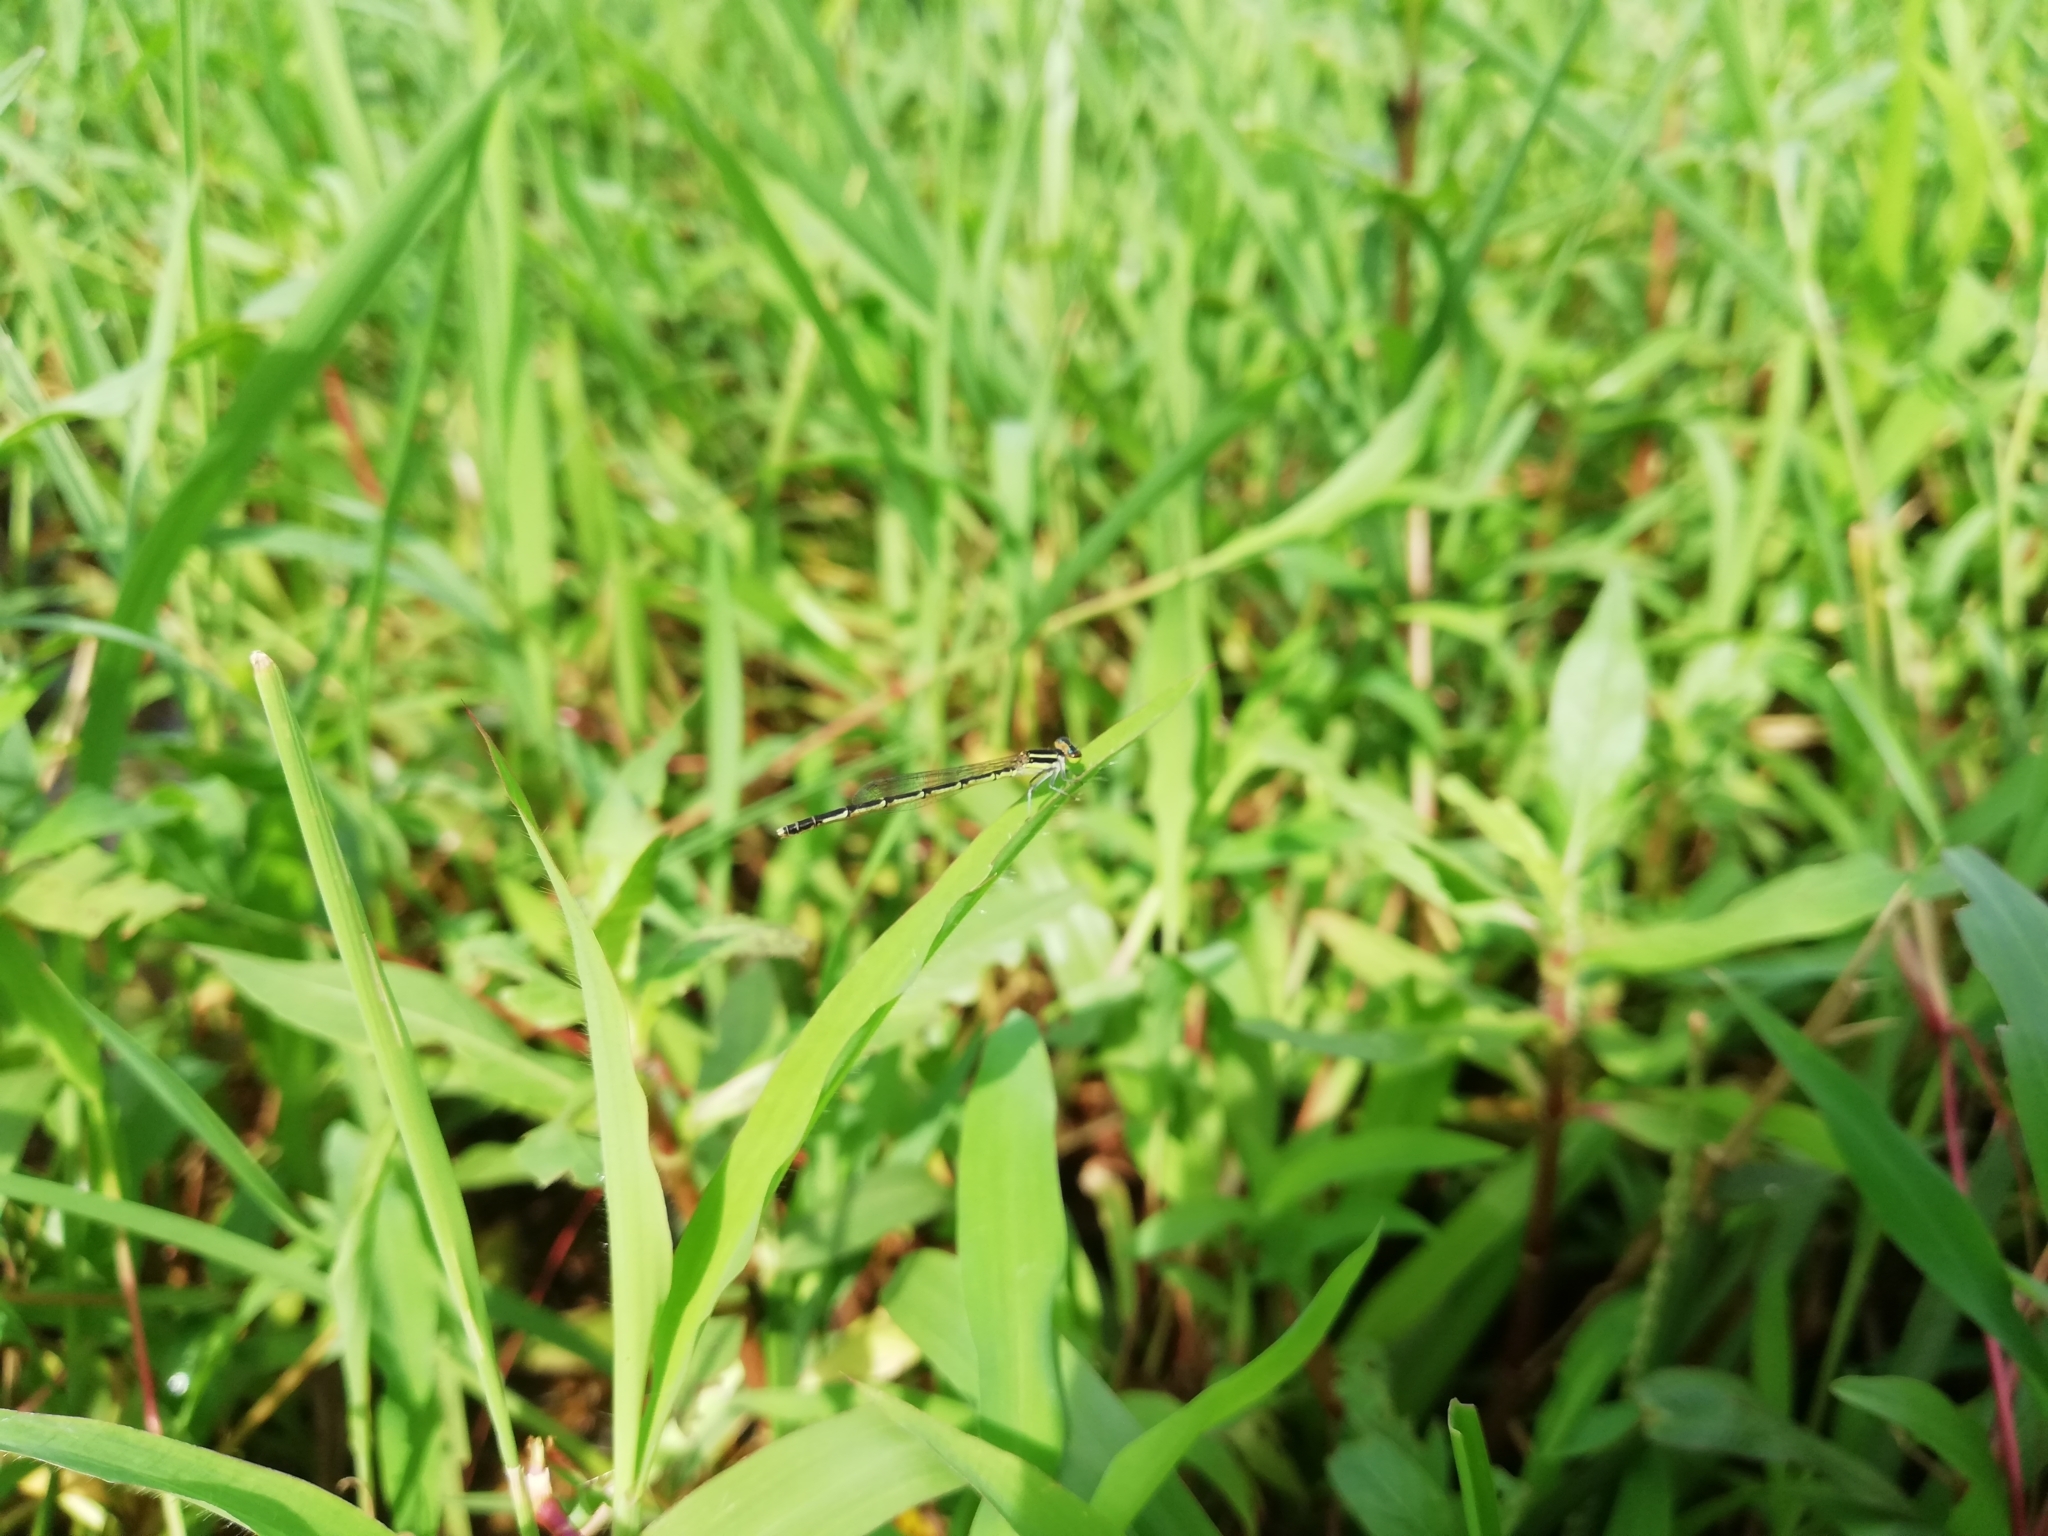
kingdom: Animalia
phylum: Arthropoda
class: Insecta
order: Odonata
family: Coenagrionidae
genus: Agriocnemis
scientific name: Agriocnemis splendidissima
